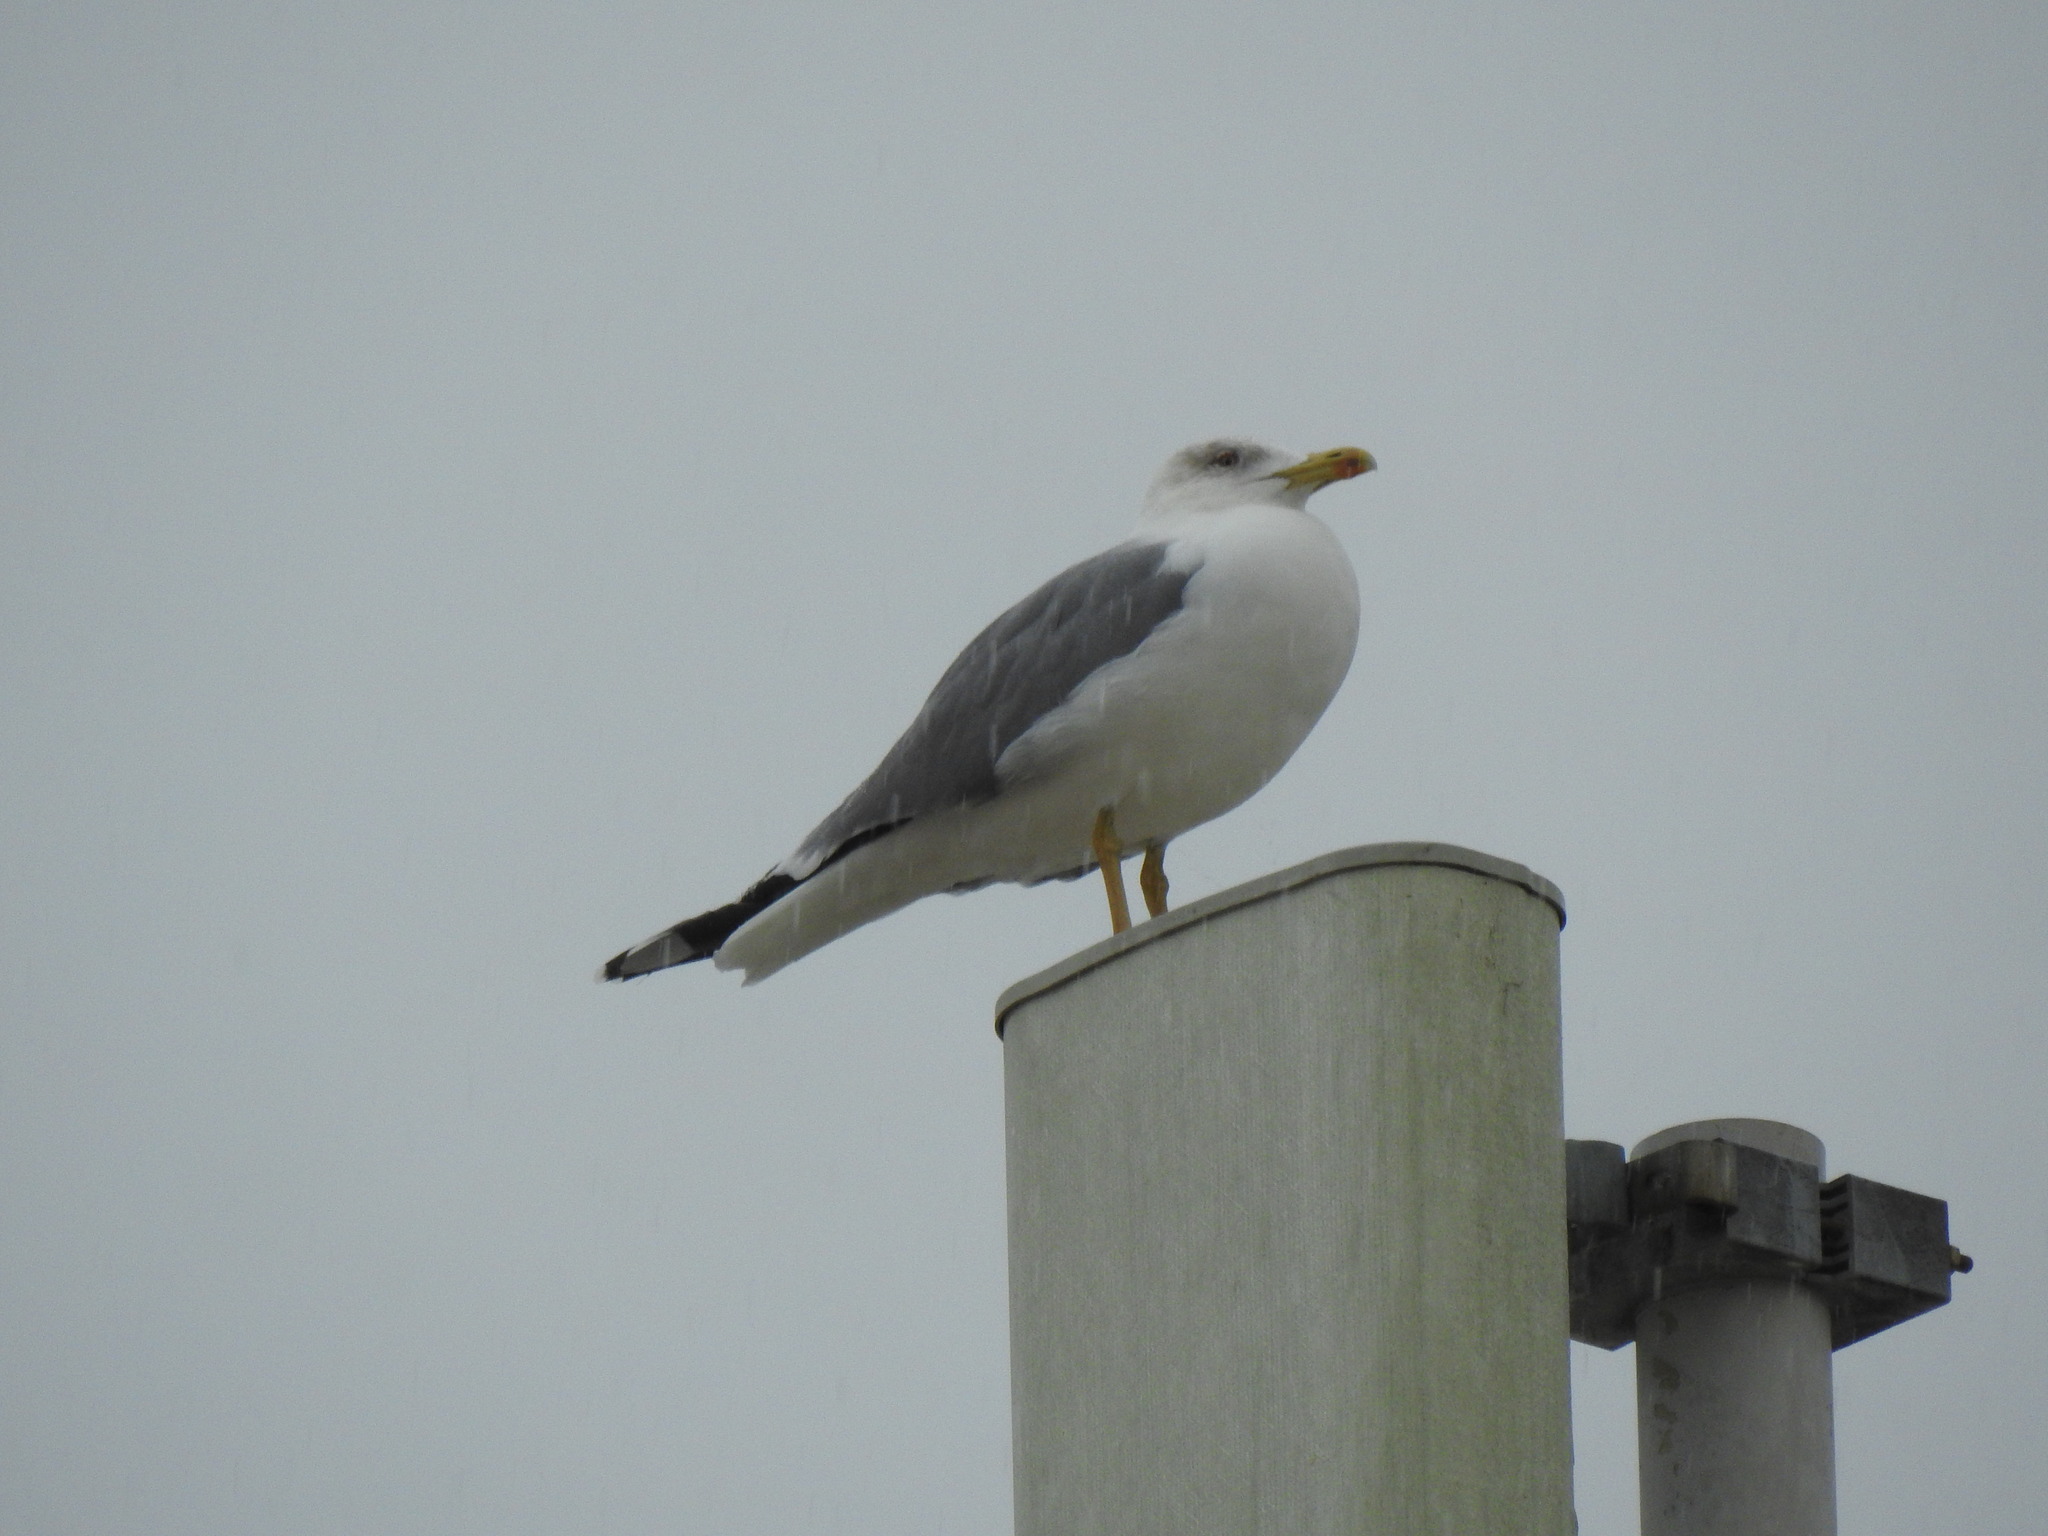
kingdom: Animalia
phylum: Chordata
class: Aves
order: Charadriiformes
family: Laridae
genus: Larus
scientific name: Larus michahellis
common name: Yellow-legged gull
